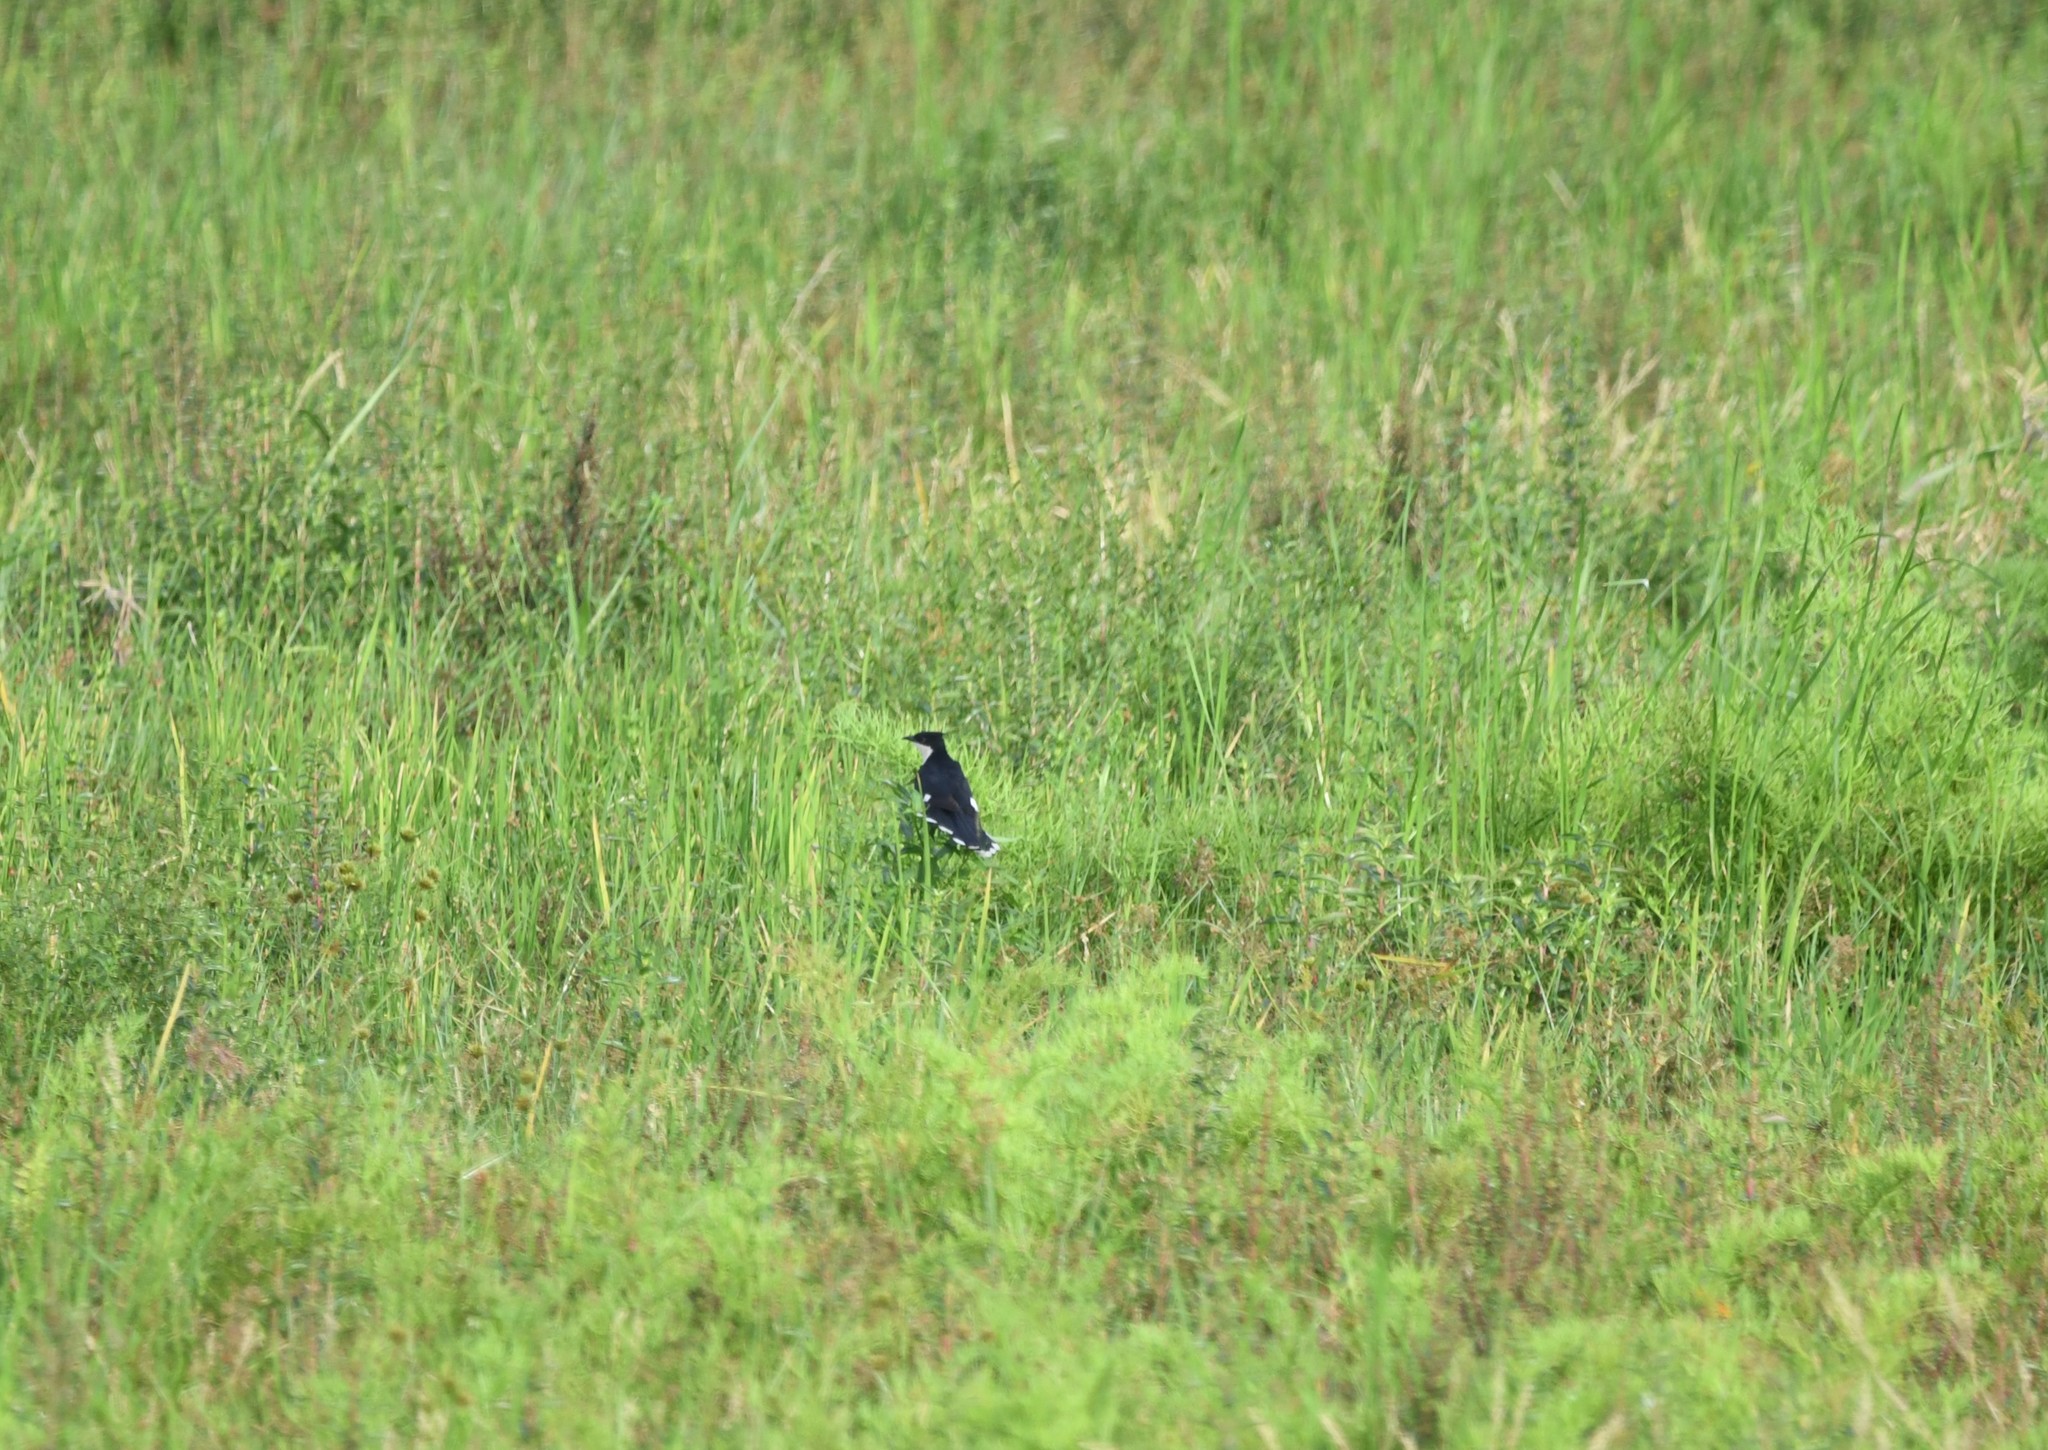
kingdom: Animalia
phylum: Chordata
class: Aves
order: Cuculiformes
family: Cuculidae
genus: Clamator
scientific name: Clamator jacobinus
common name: Jacobin cuckoo
